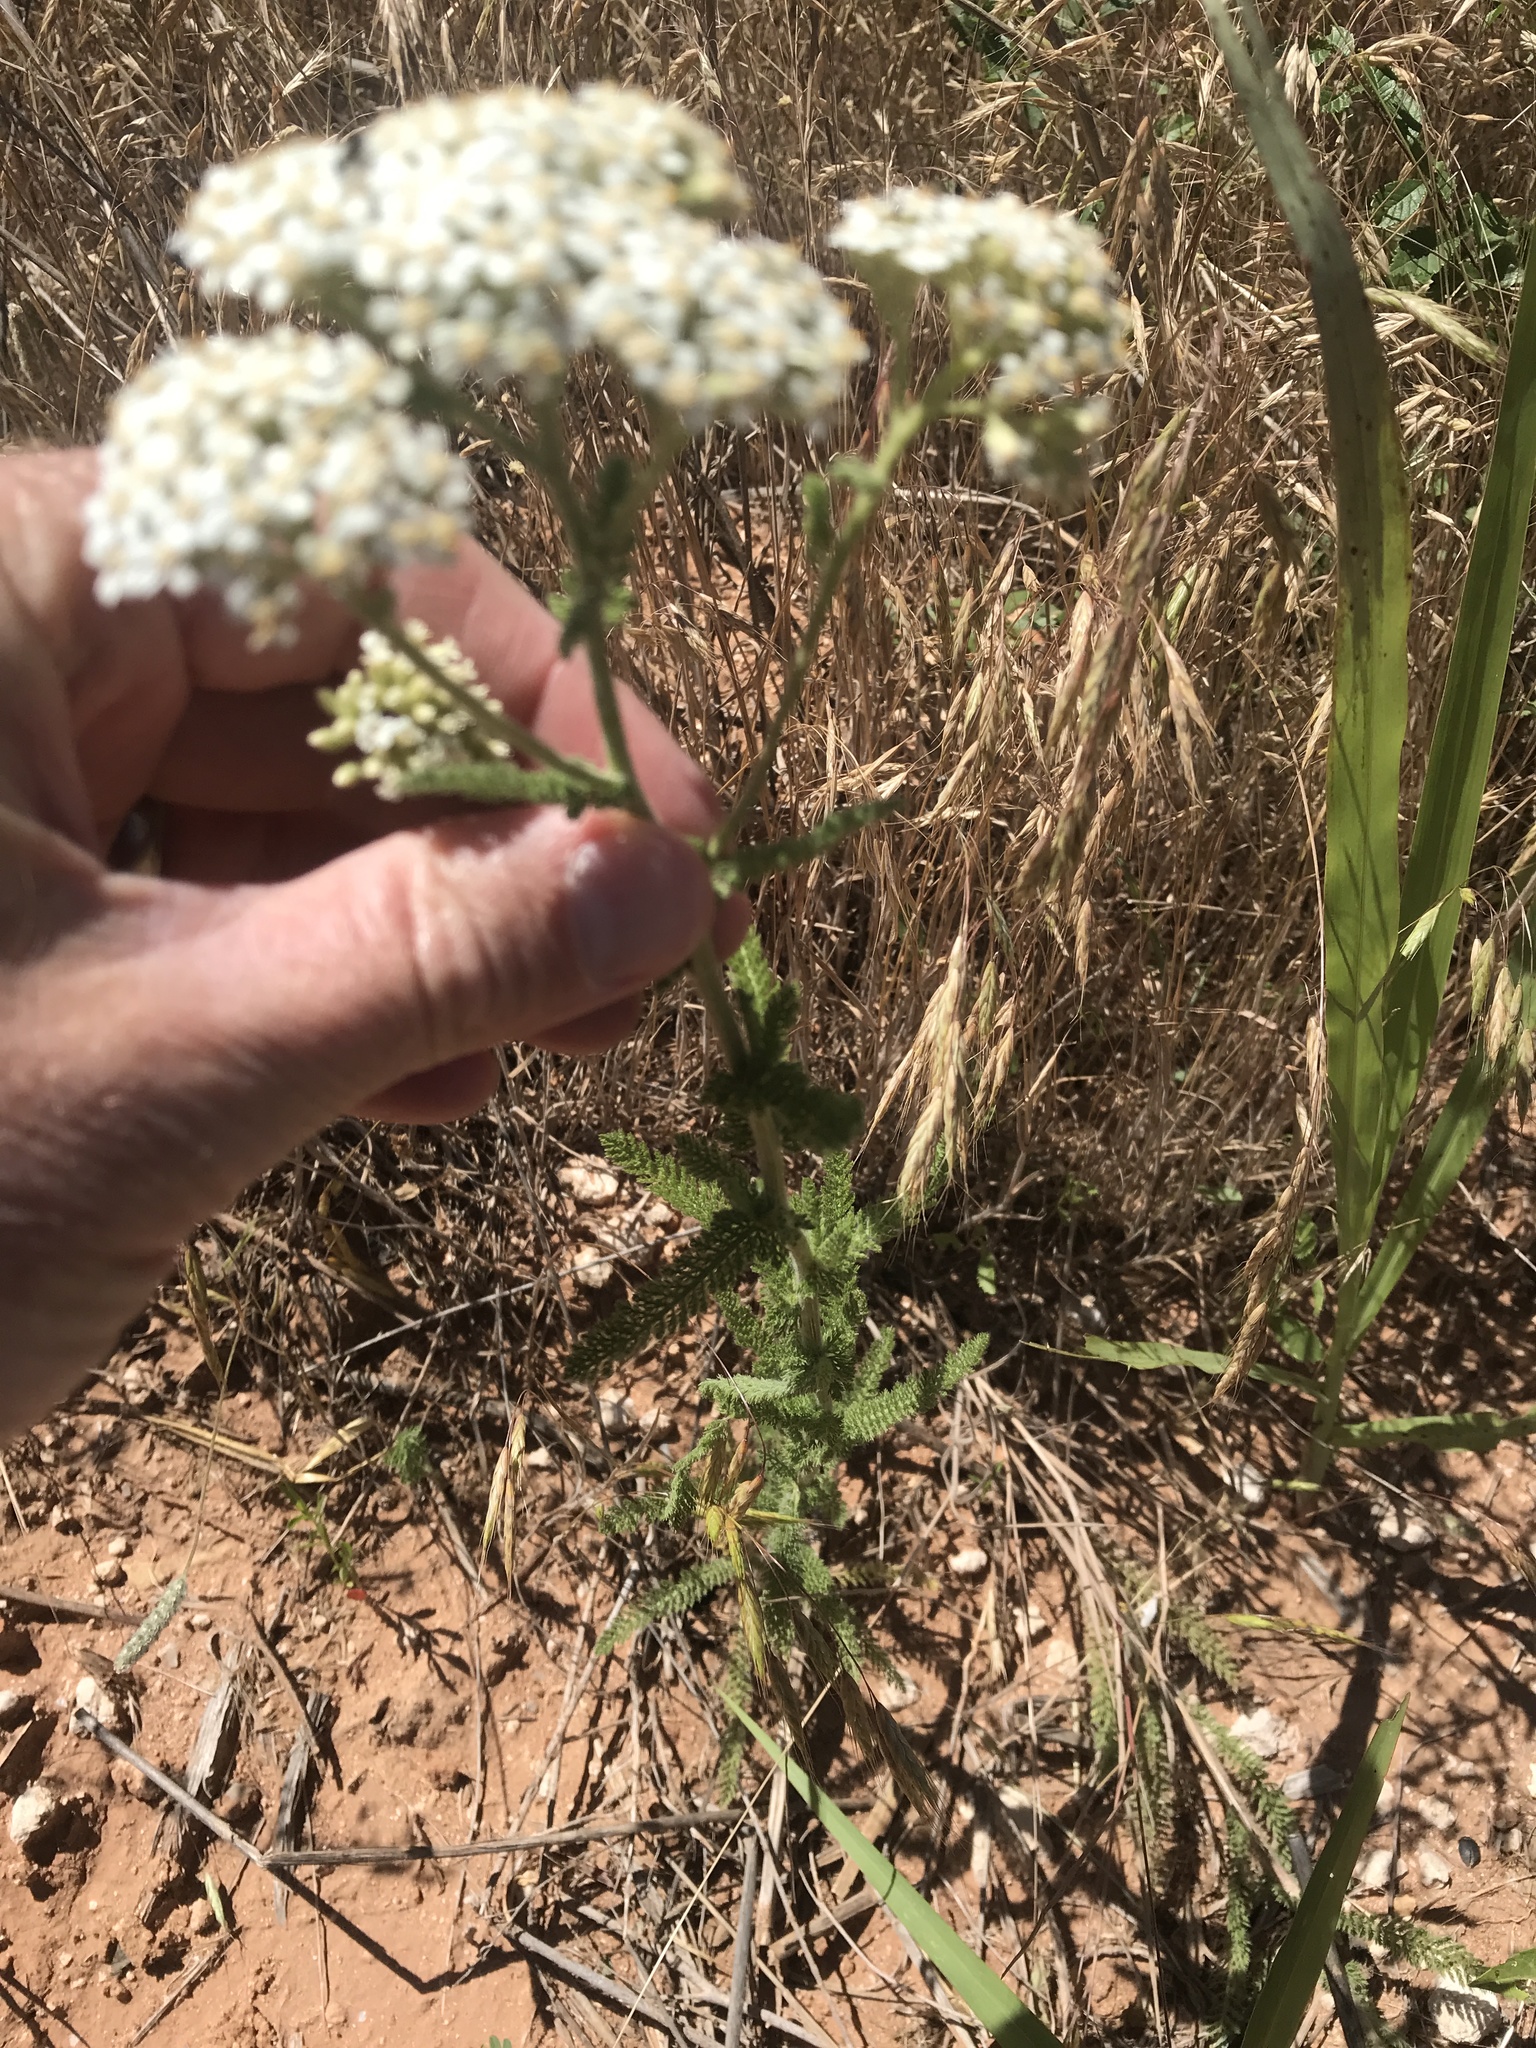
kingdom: Plantae
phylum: Tracheophyta
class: Magnoliopsida
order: Asterales
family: Asteraceae
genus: Achillea
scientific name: Achillea millefolium
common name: Yarrow
